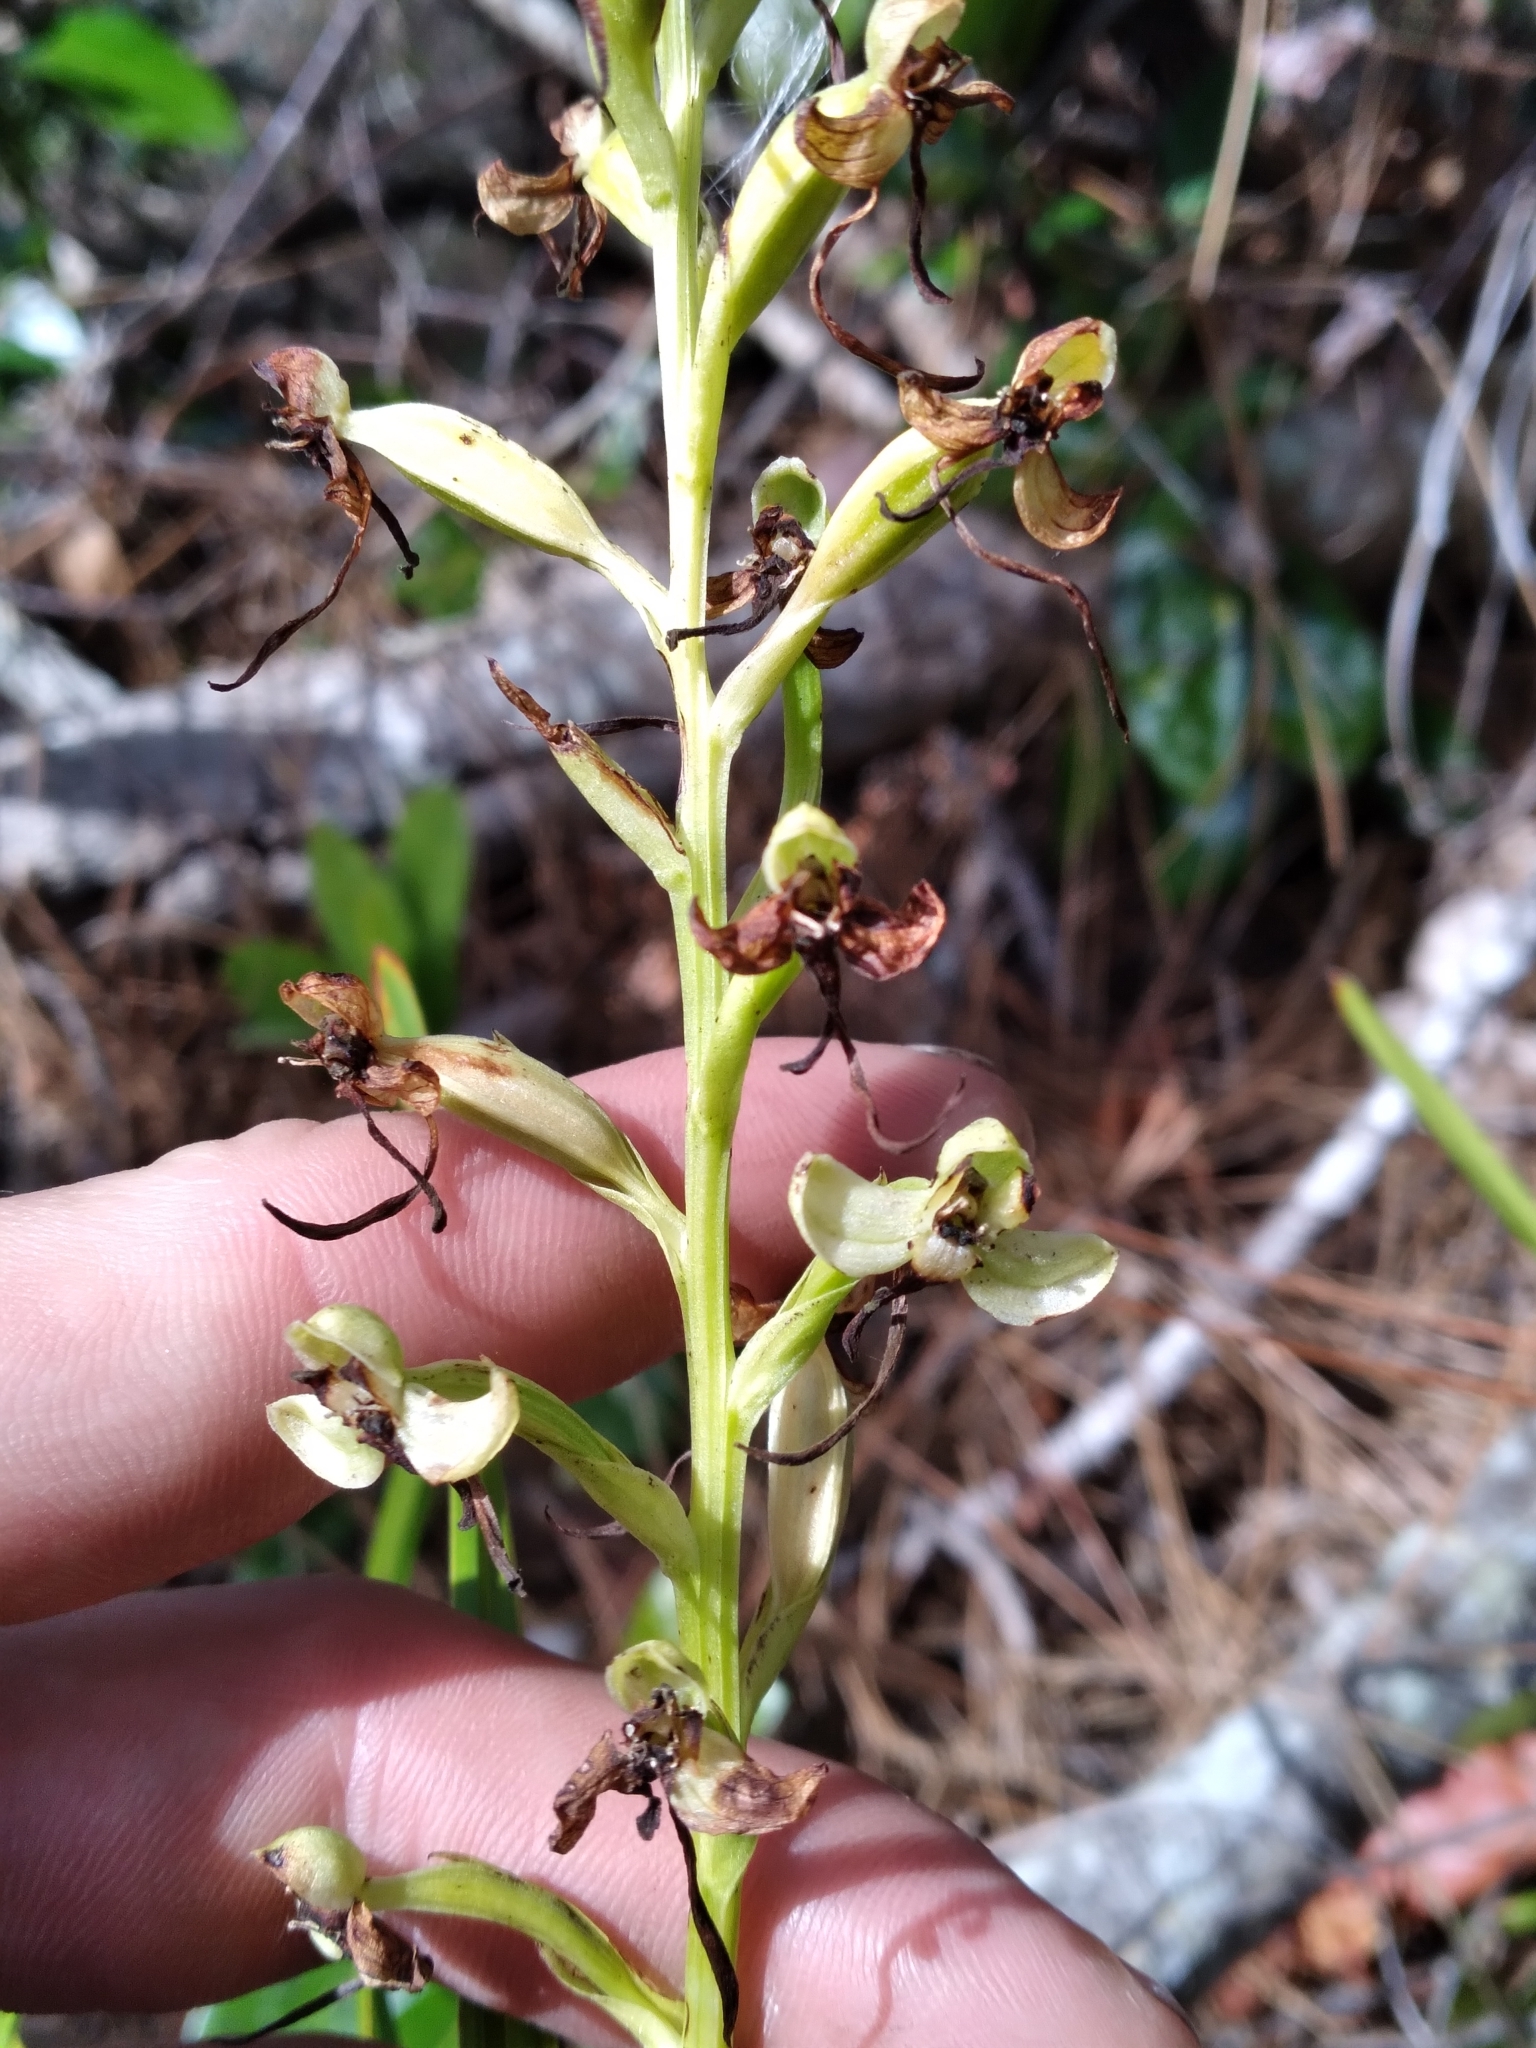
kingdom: Plantae
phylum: Tracheophyta
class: Liliopsida
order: Asparagales
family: Orchidaceae
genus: Habenaria
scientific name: Habenaria floribunda
